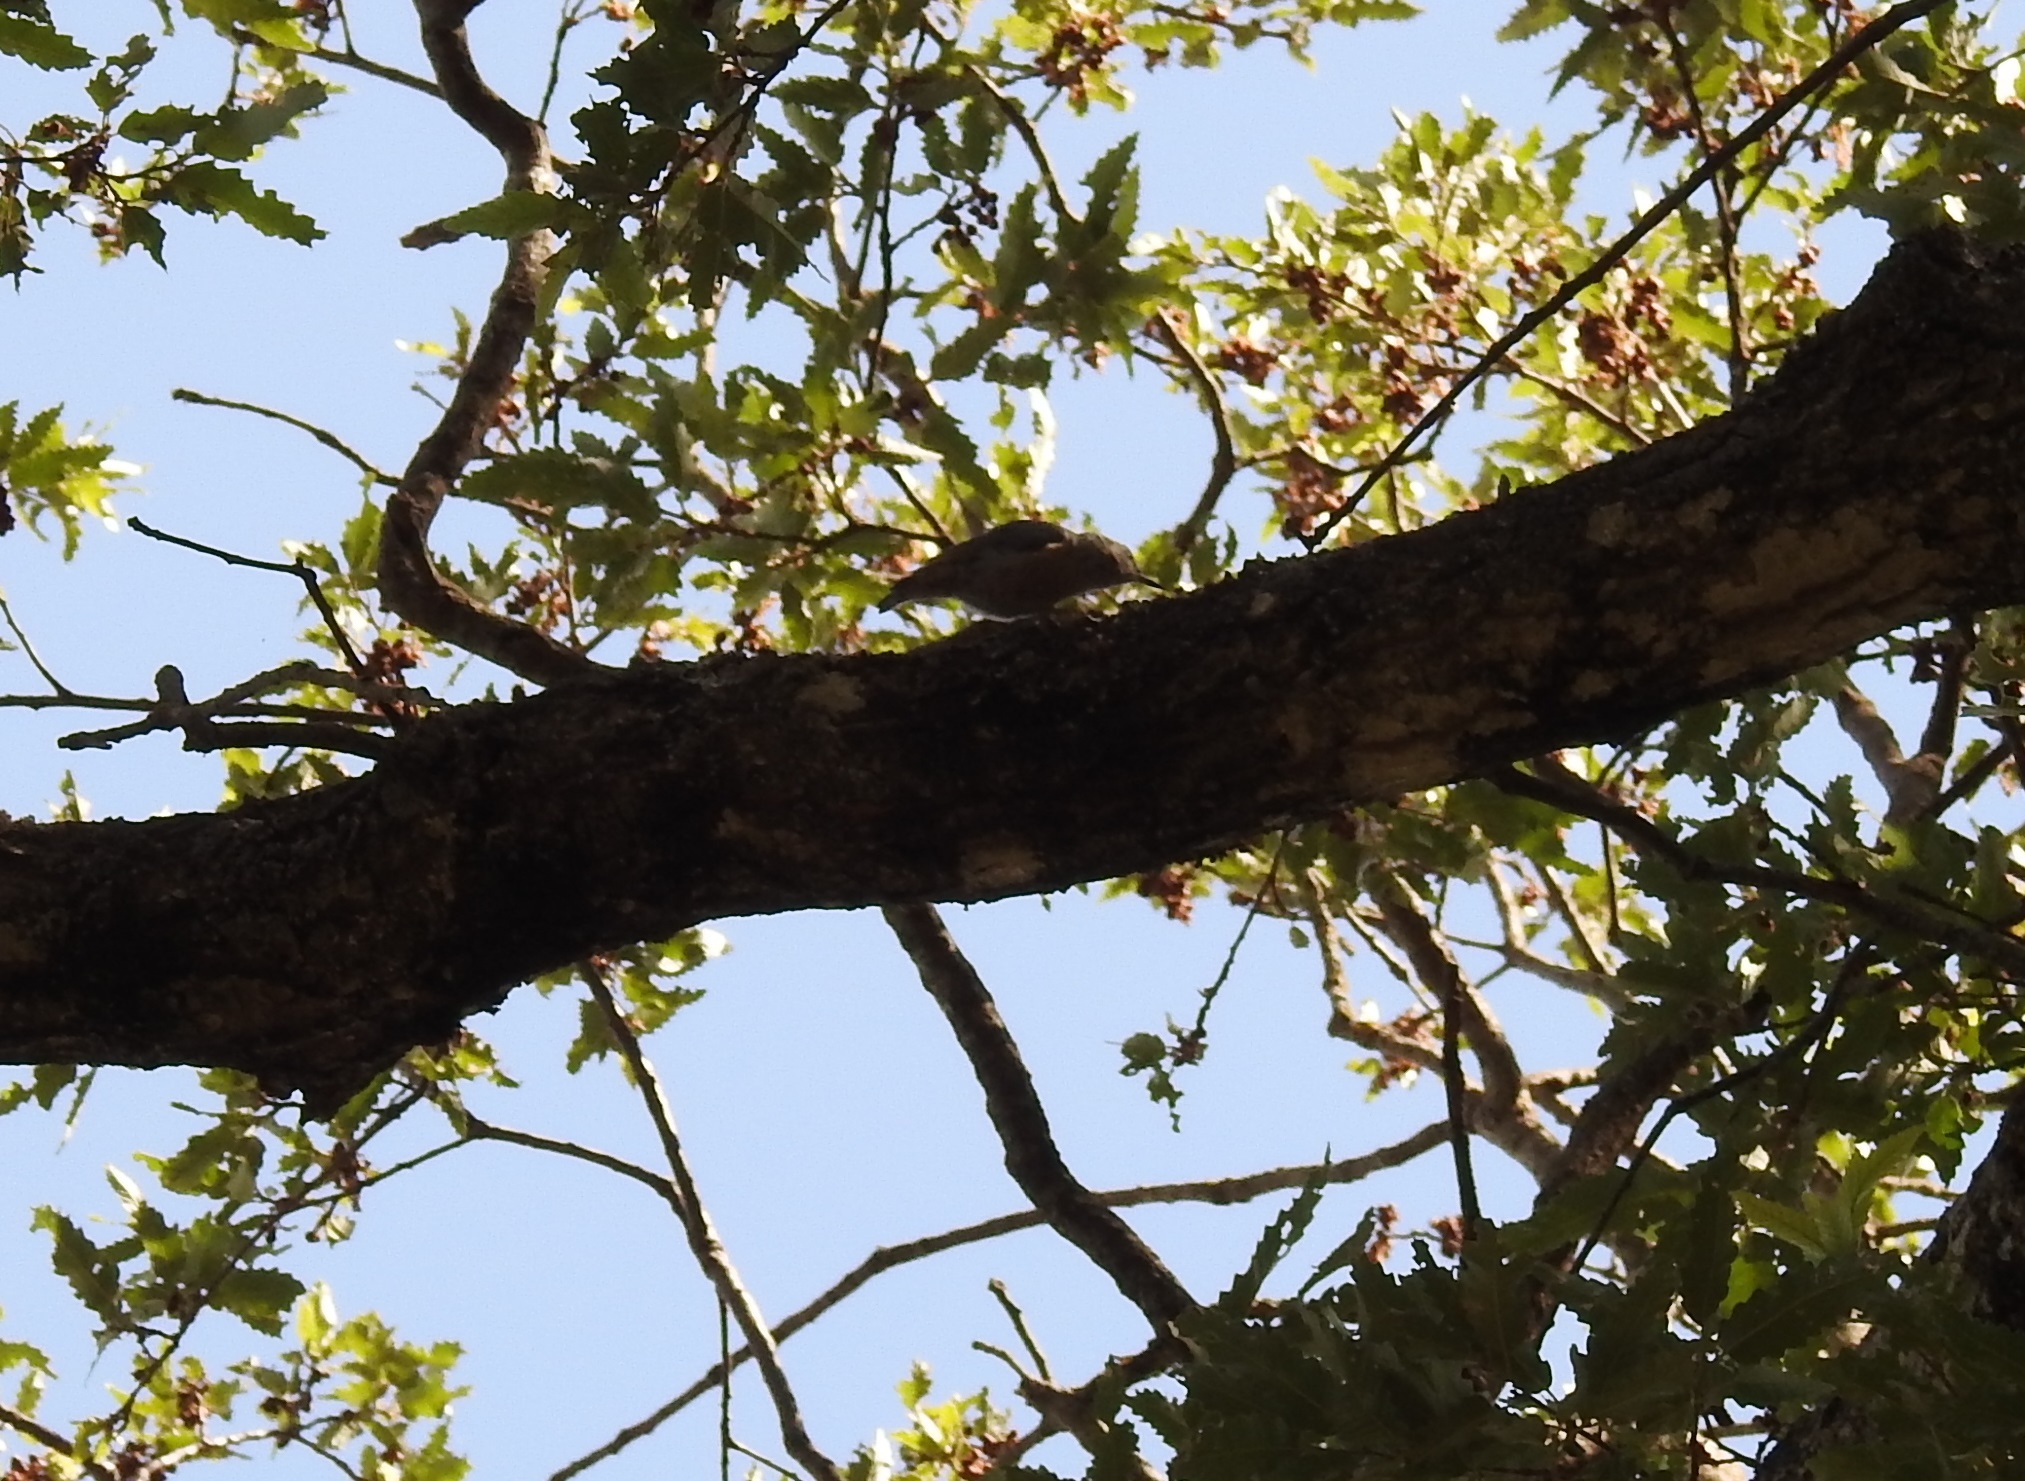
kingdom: Animalia
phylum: Chordata
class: Aves
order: Passeriformes
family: Sittidae
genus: Sitta
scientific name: Sitta ledanti
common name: Algerian nuthatch
